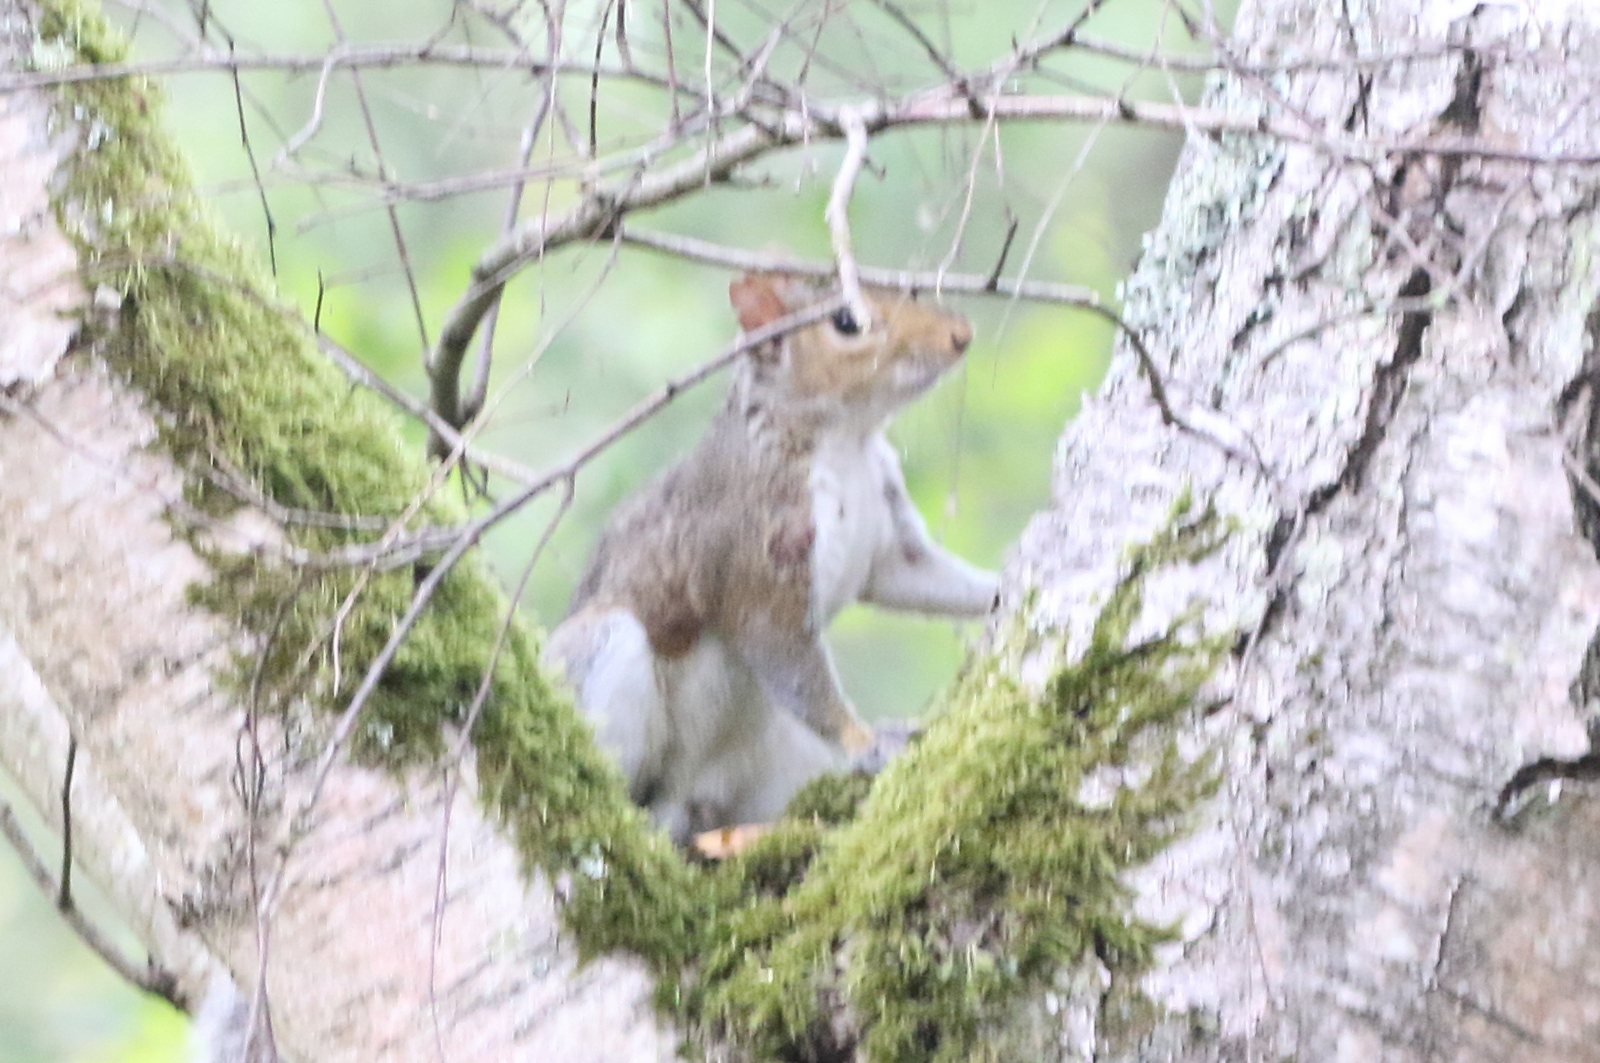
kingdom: Animalia
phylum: Chordata
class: Mammalia
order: Rodentia
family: Sciuridae
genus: Sciurus
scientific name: Sciurus carolinensis
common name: Eastern gray squirrel
